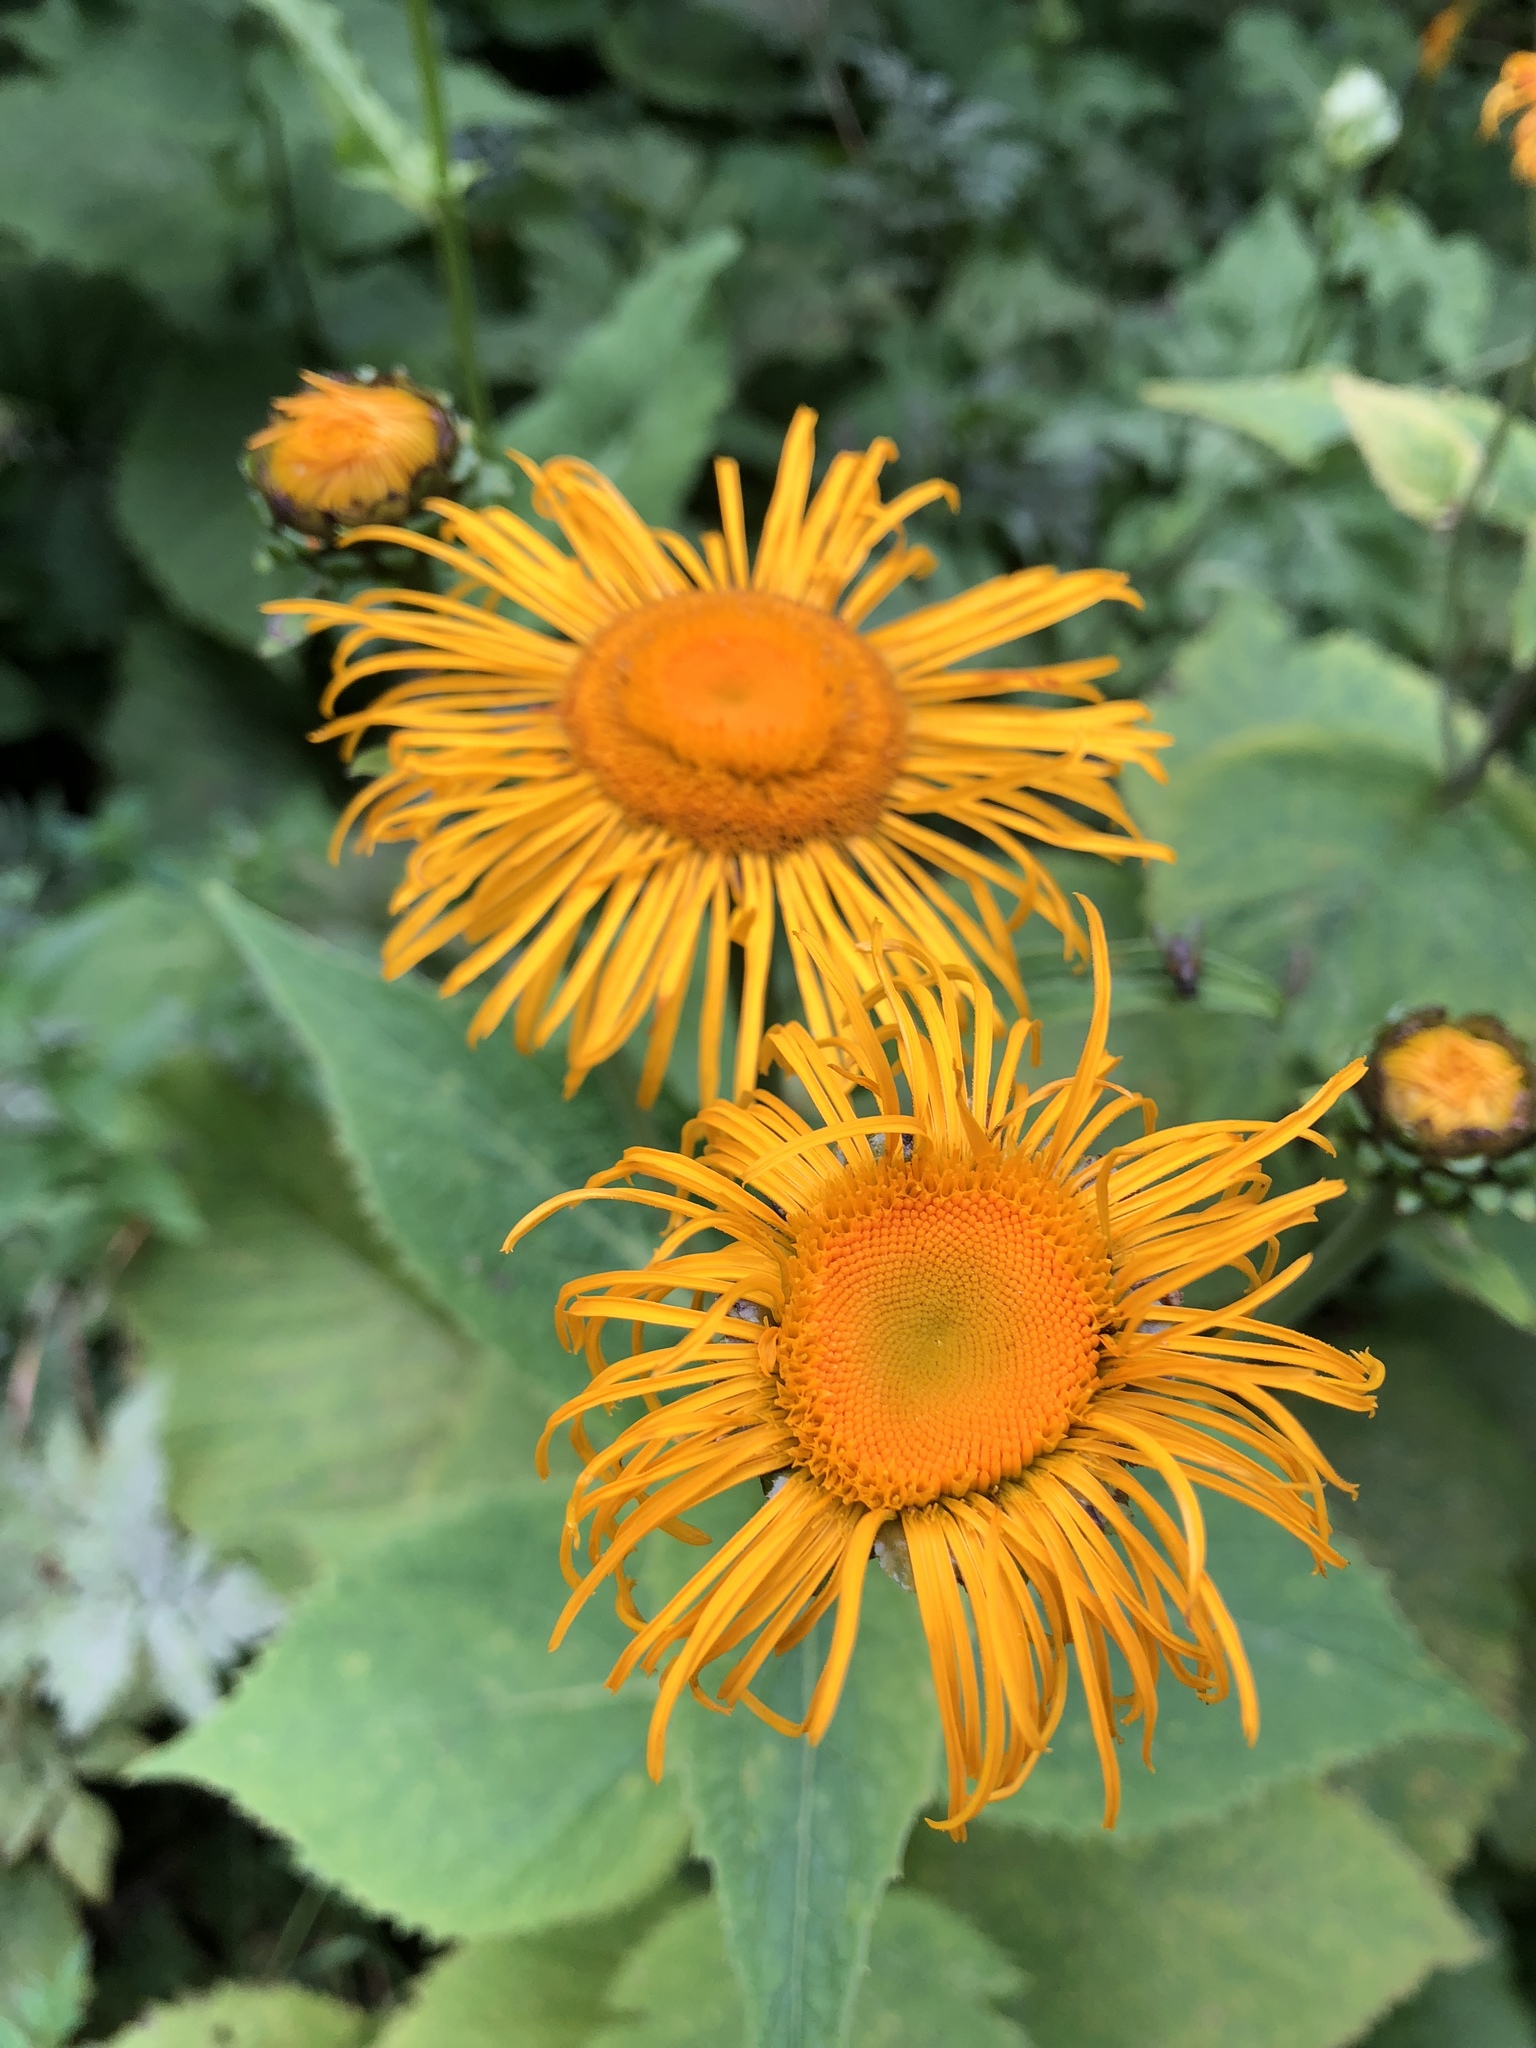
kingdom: Plantae
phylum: Tracheophyta
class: Magnoliopsida
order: Asterales
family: Asteraceae
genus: Telekia
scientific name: Telekia speciosa
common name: Yellow oxeye
